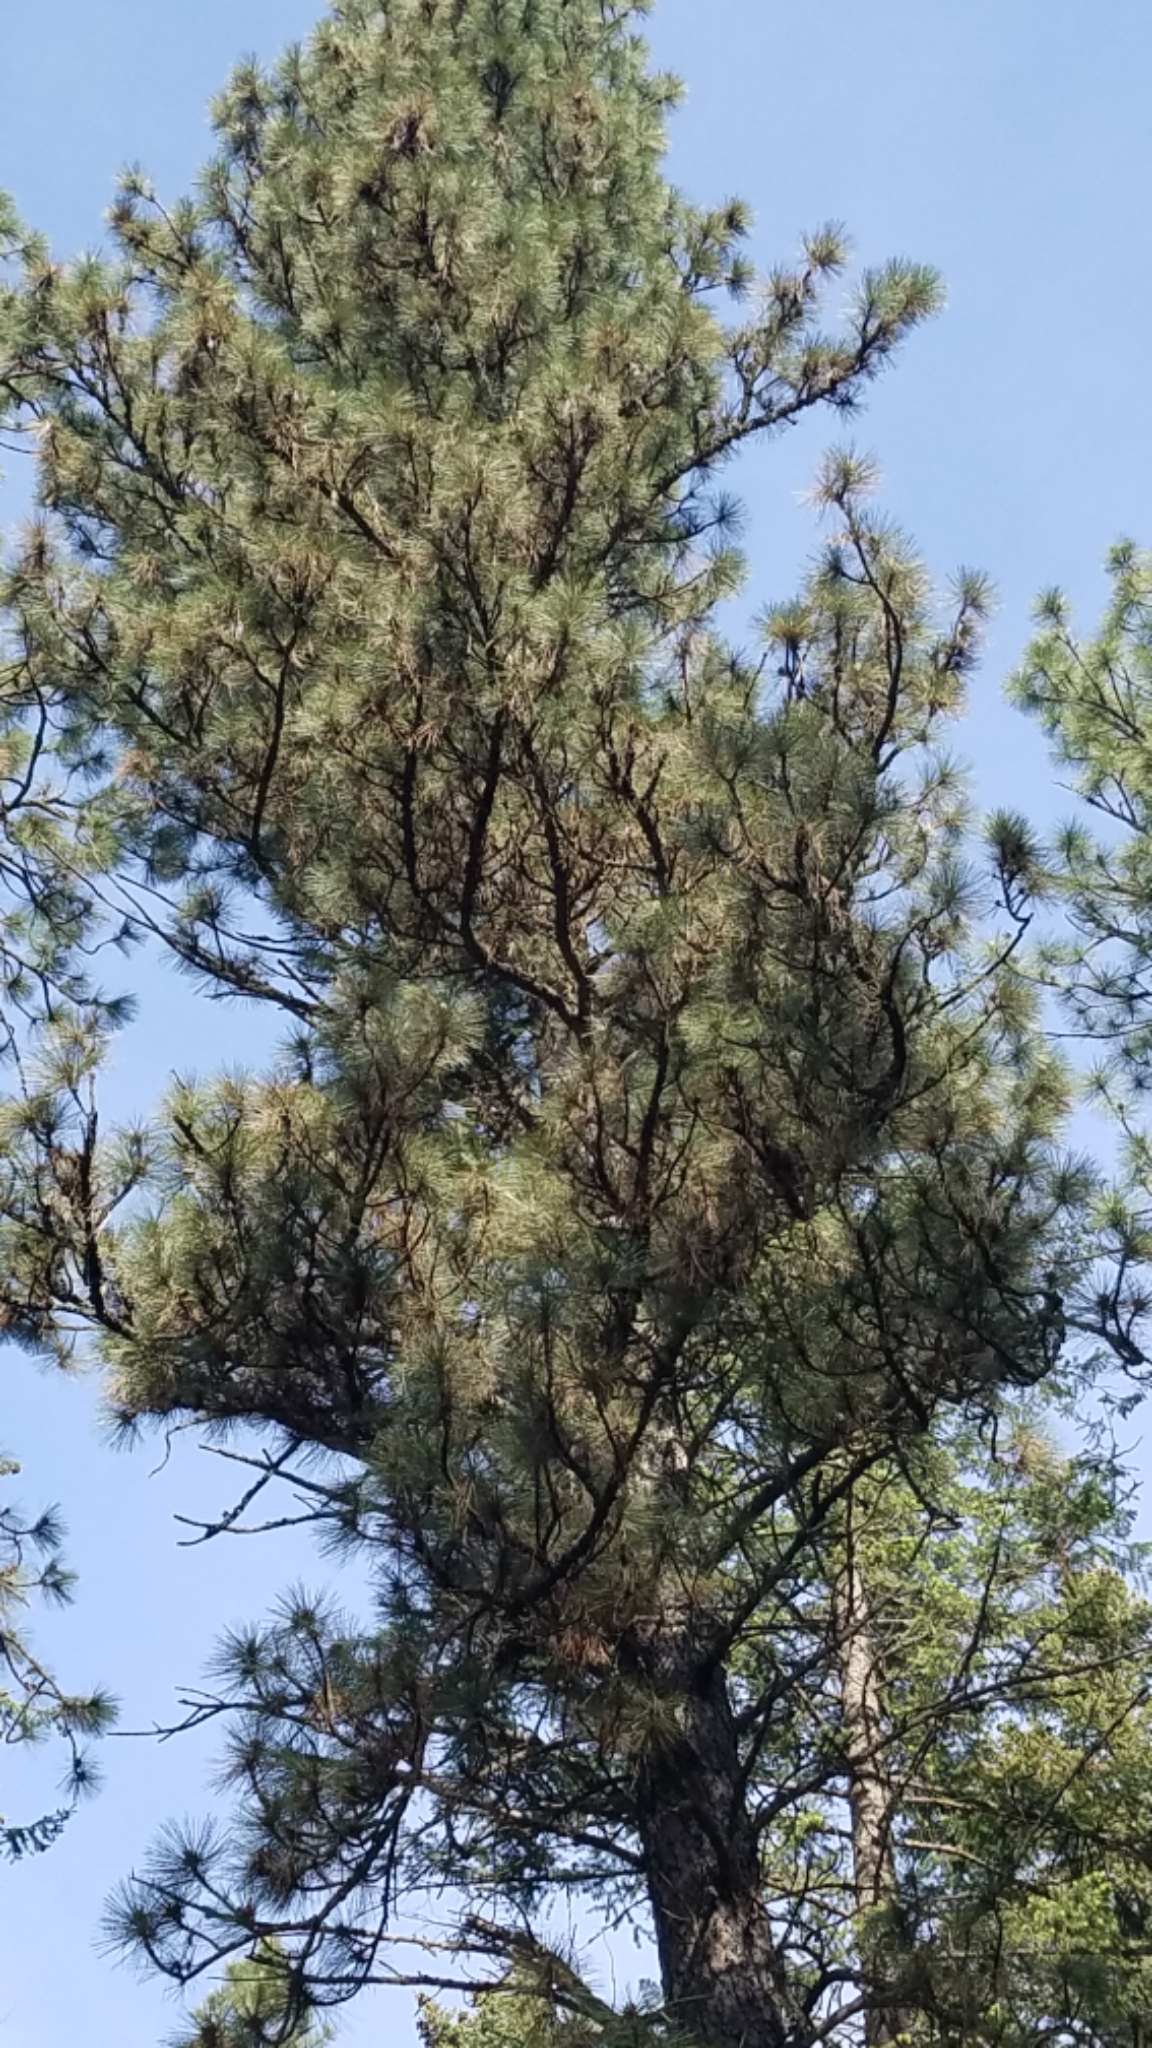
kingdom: Plantae
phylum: Tracheophyta
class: Pinopsida
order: Pinales
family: Pinaceae
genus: Pinus
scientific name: Pinus ponderosa
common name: Western yellow-pine
